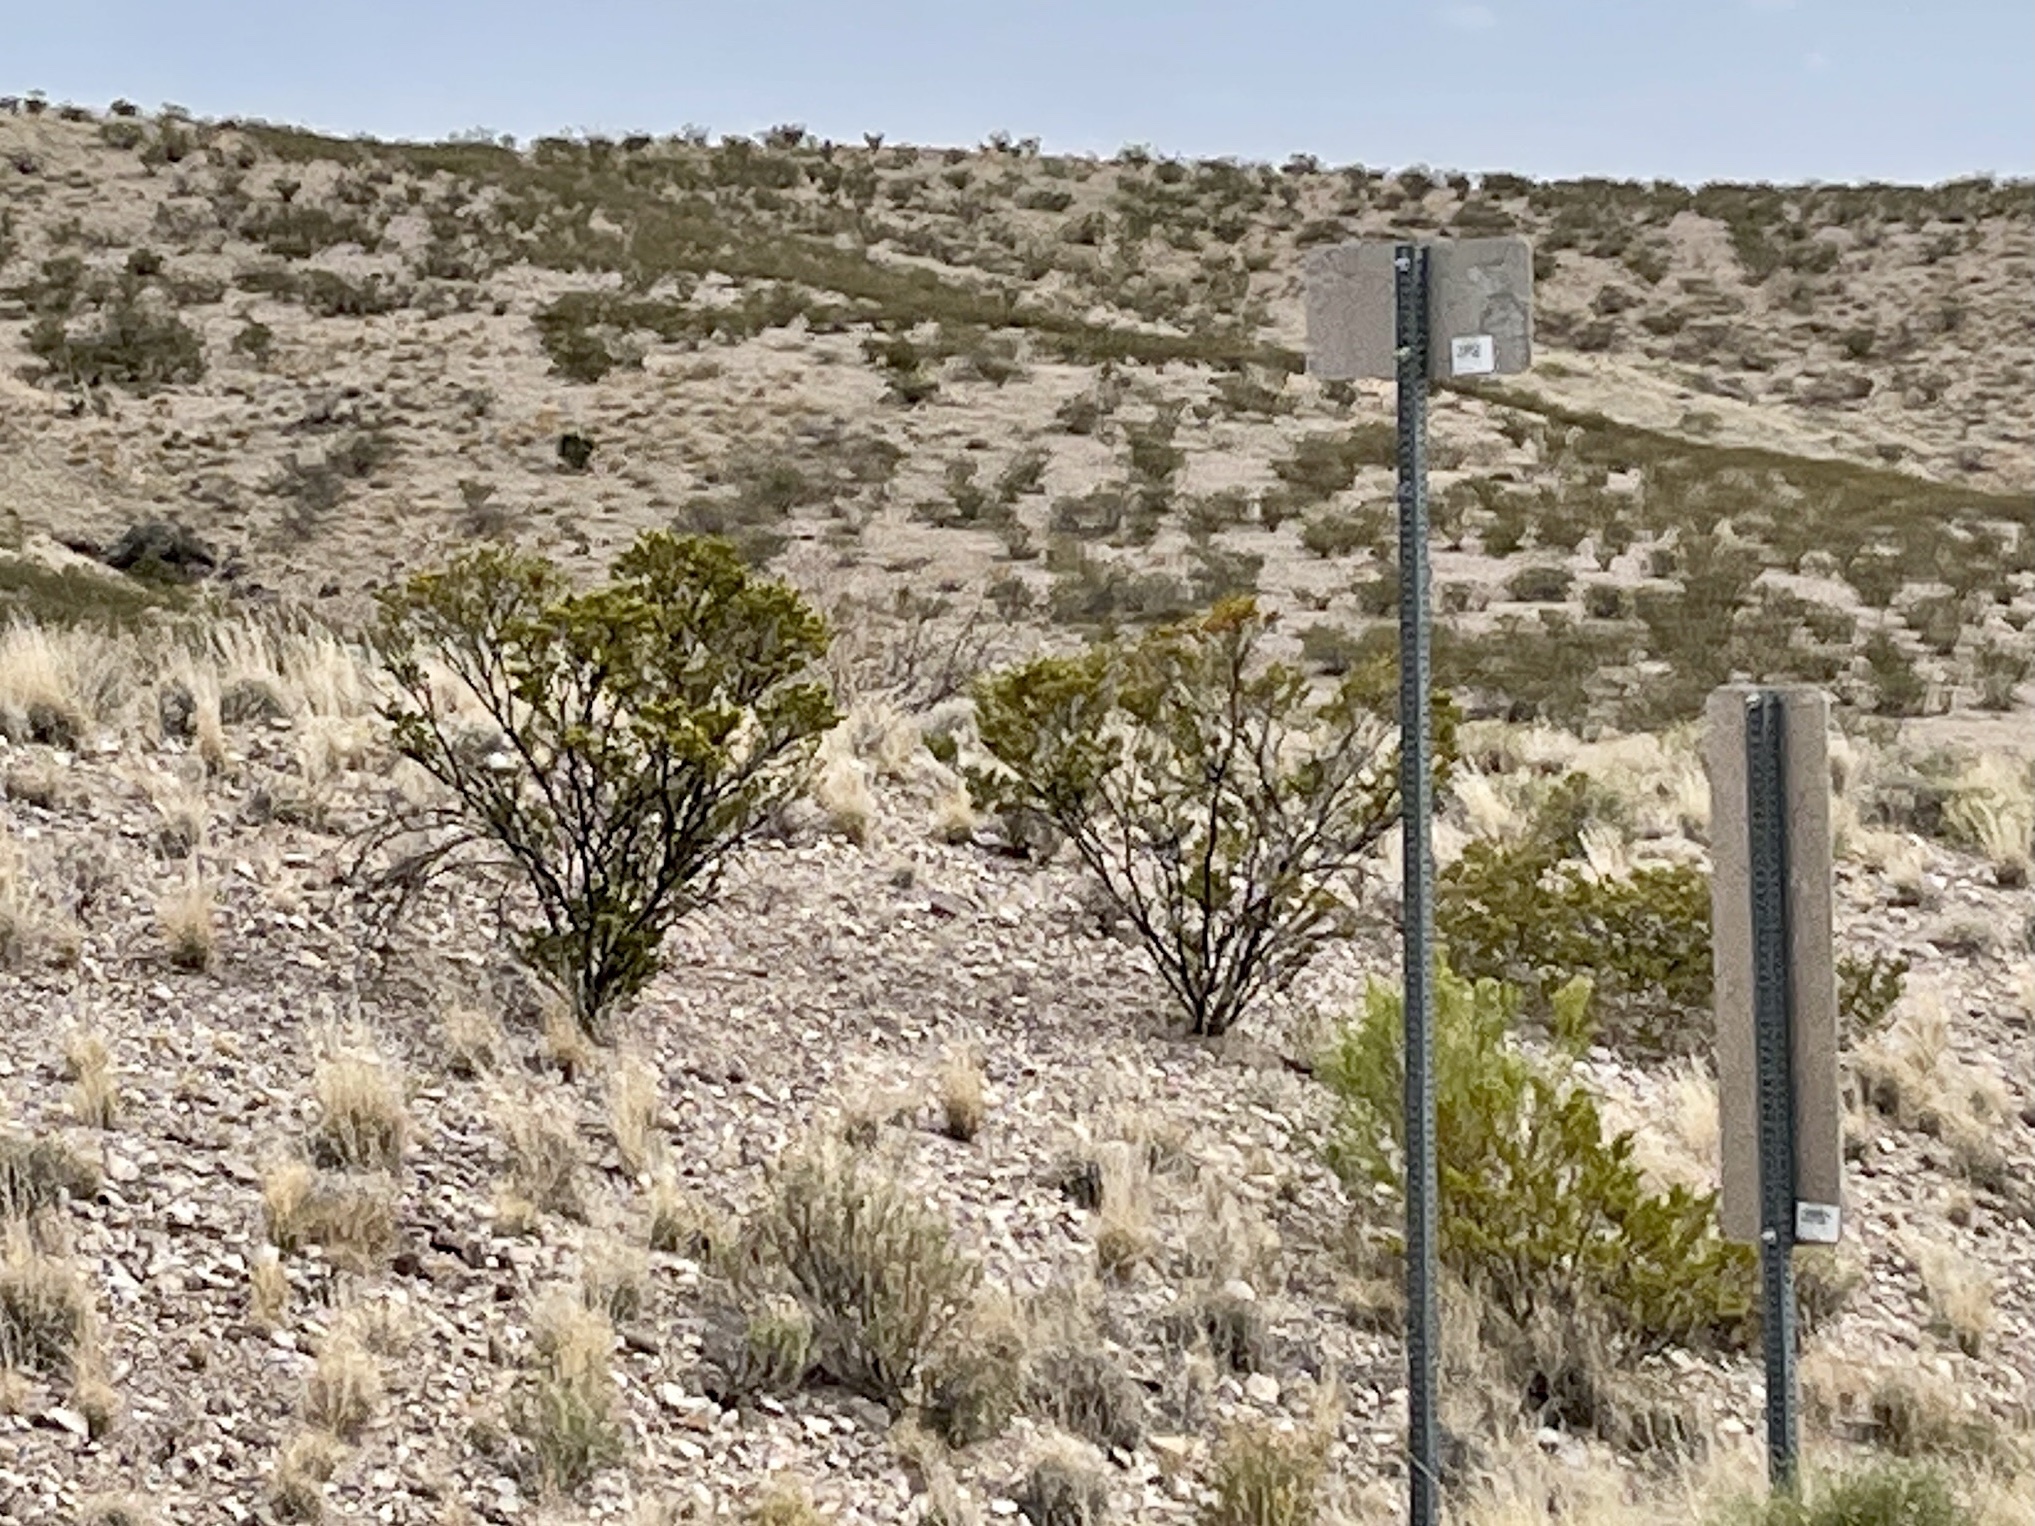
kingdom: Plantae
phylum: Tracheophyta
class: Magnoliopsida
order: Zygophyllales
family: Zygophyllaceae
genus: Larrea
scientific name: Larrea tridentata
